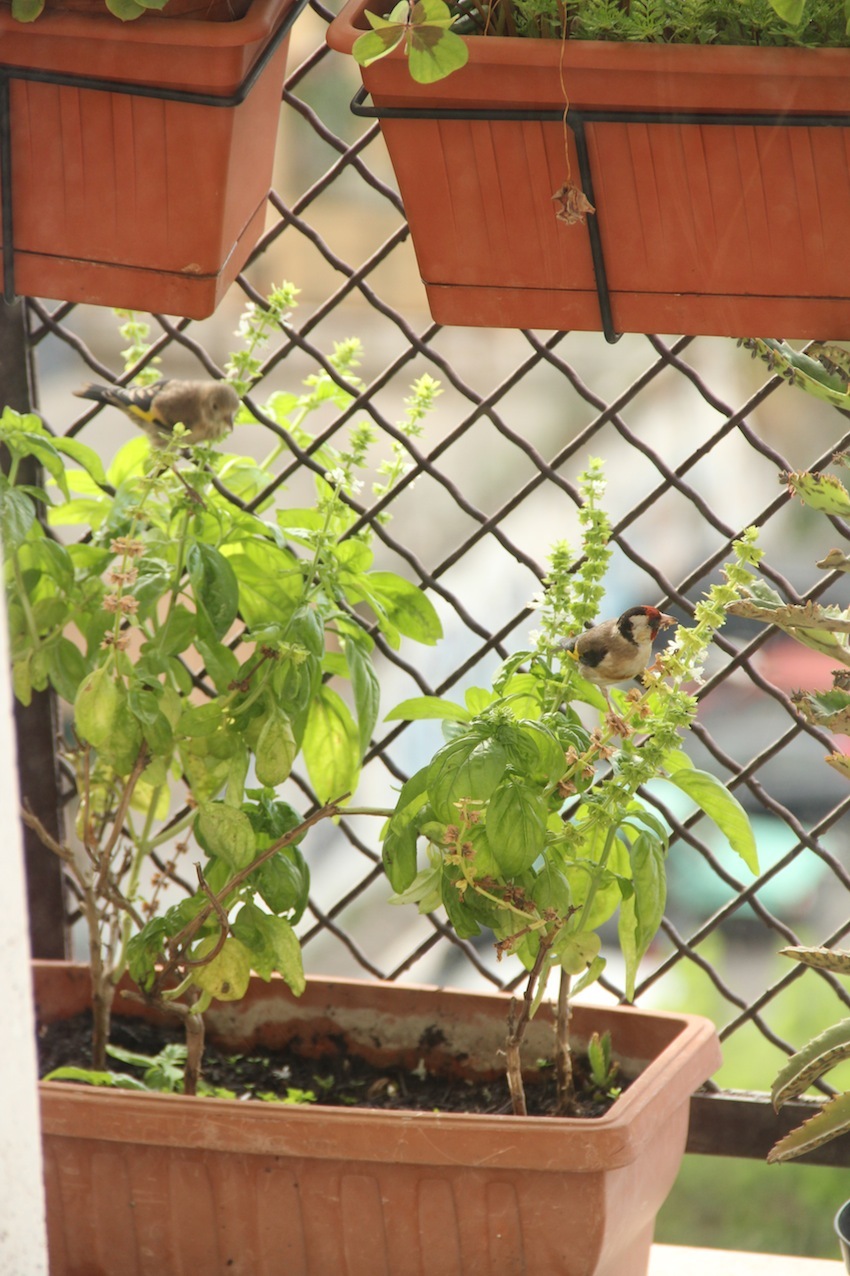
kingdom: Animalia
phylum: Chordata
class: Aves
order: Passeriformes
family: Fringillidae
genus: Carduelis
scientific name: Carduelis carduelis
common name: European goldfinch
